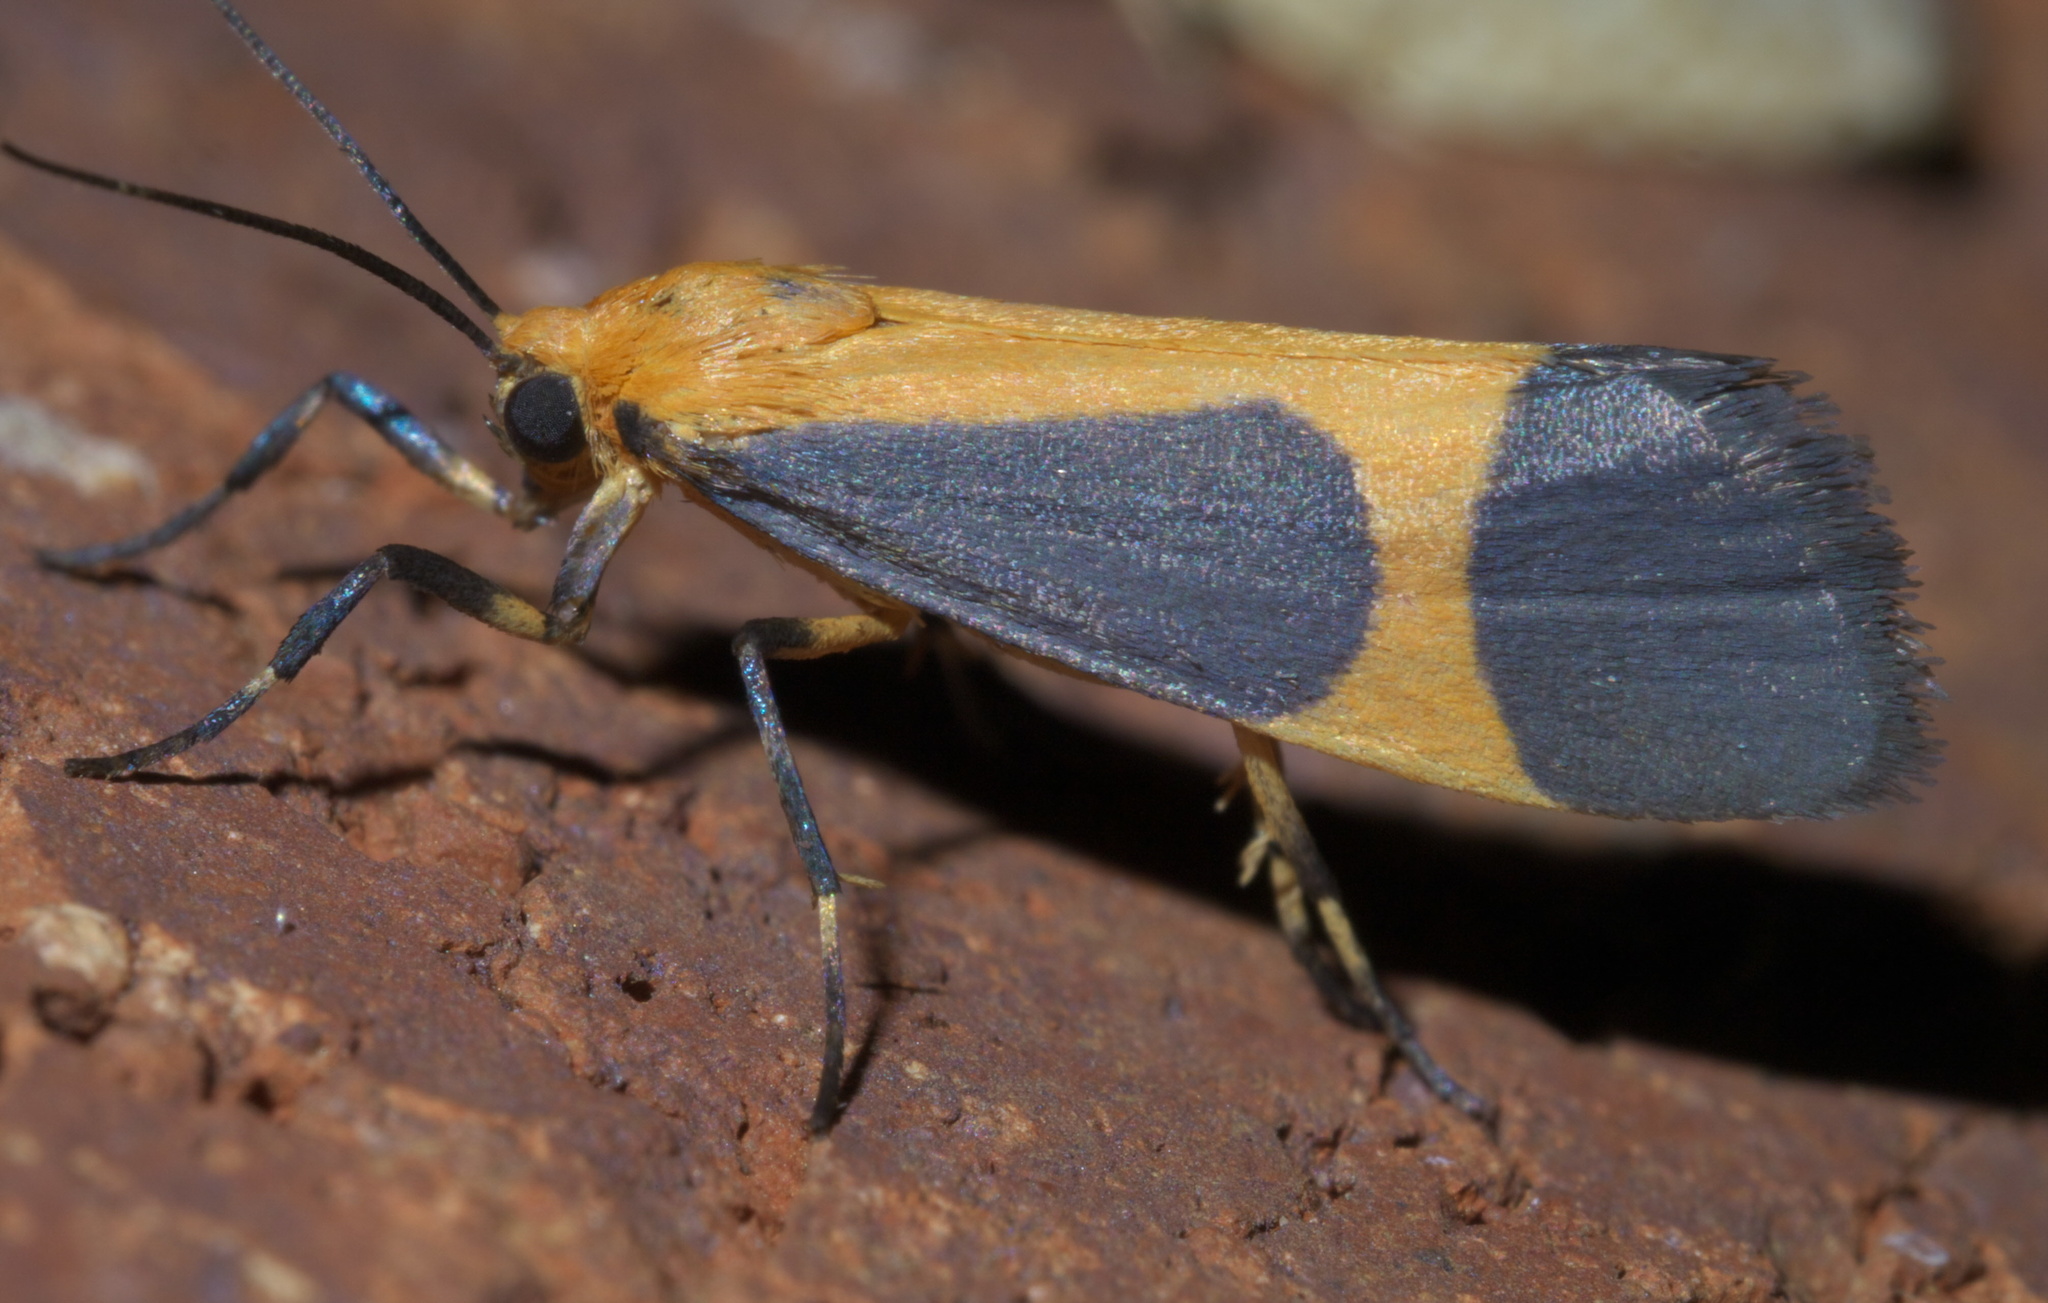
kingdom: Animalia
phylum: Arthropoda
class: Insecta
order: Lepidoptera
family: Erebidae
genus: Cisthene
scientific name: Cisthene picta
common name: Pictured lichen moth
